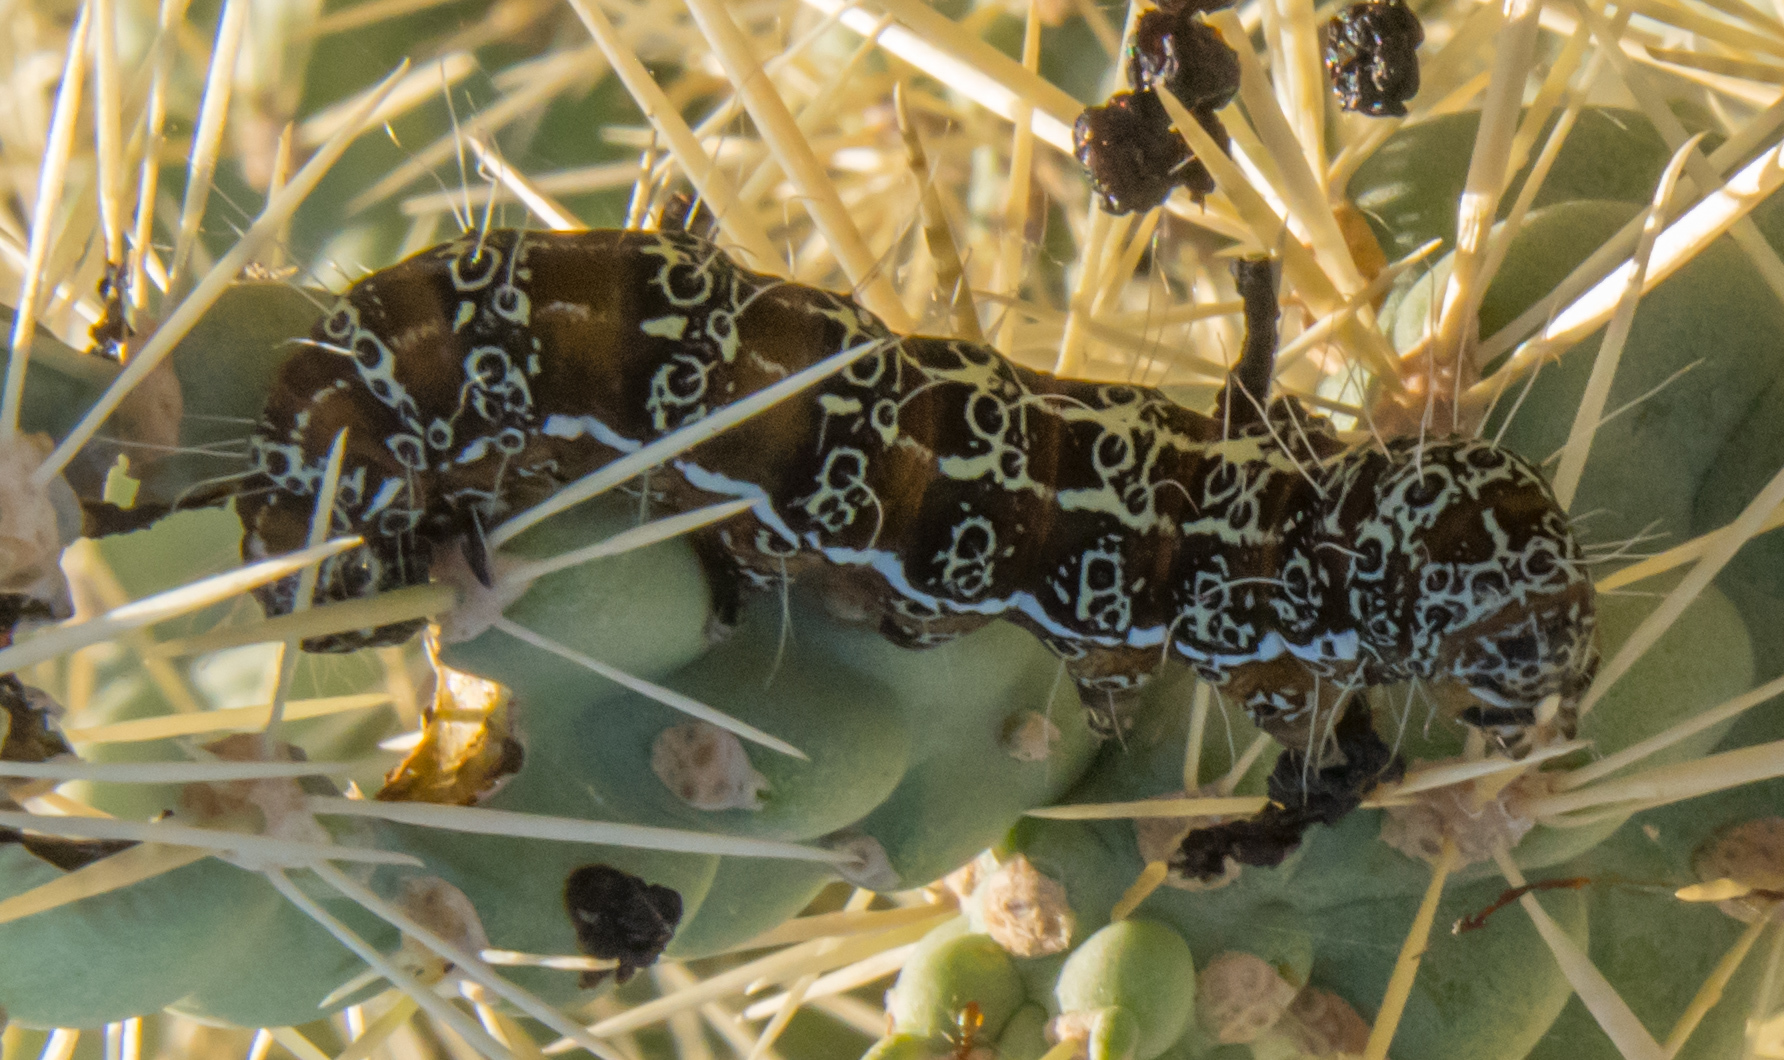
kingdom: Animalia
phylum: Arthropoda
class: Insecta
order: Lepidoptera
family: Noctuidae
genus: Euscirrhopterus
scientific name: Euscirrhopterus cosyra
